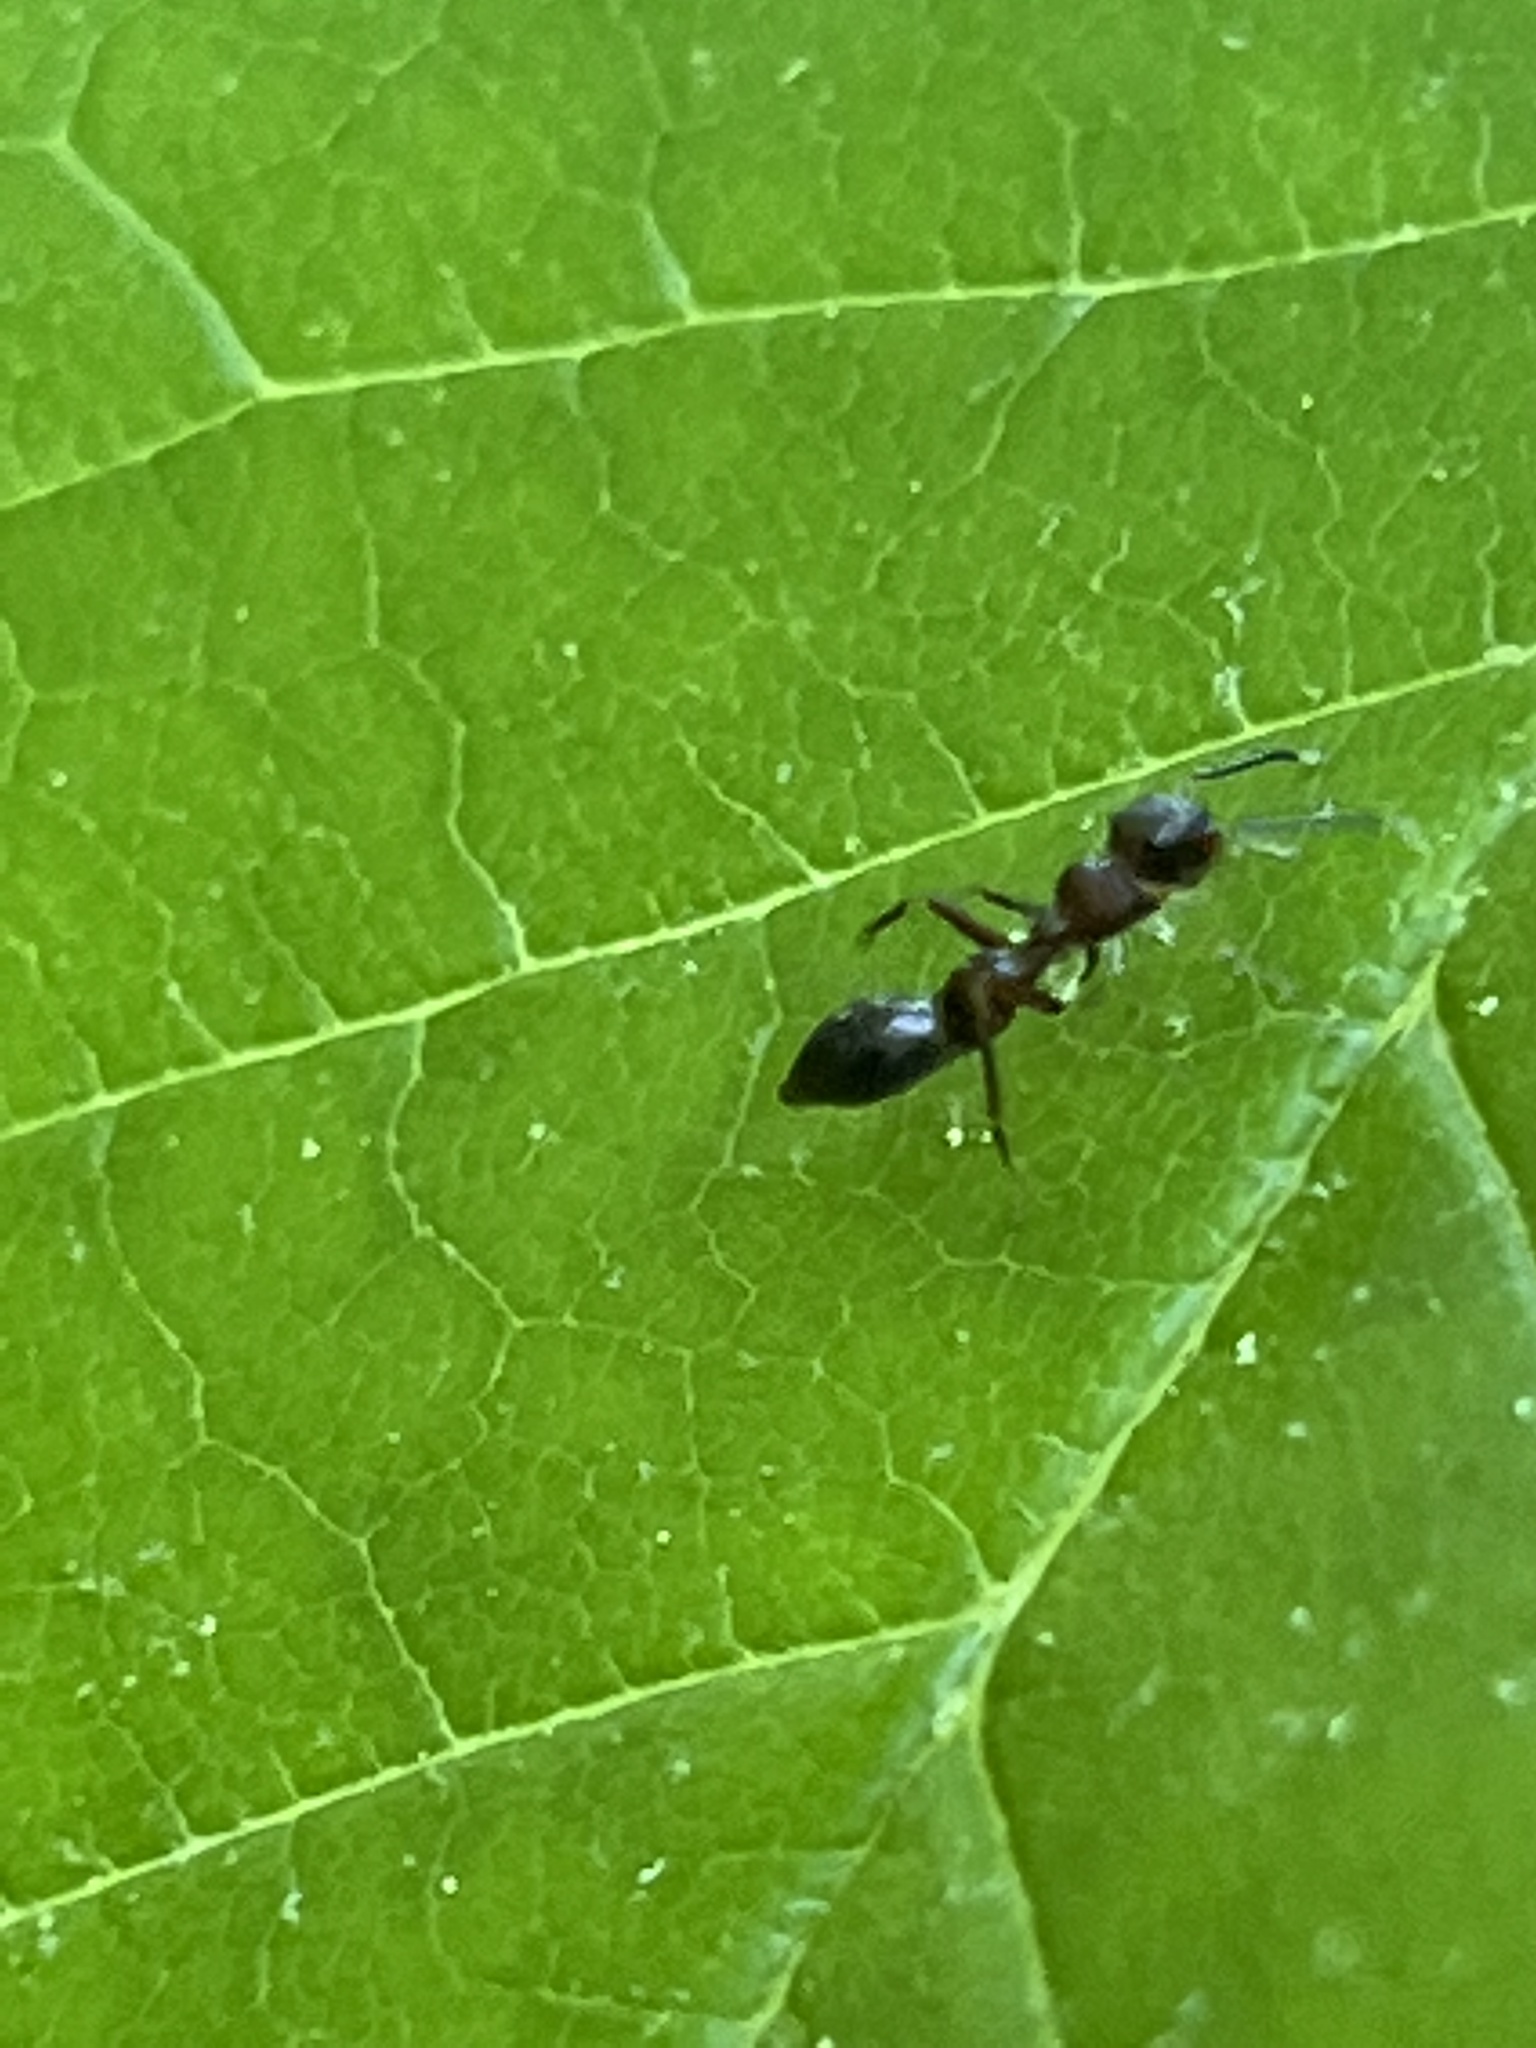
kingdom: Animalia
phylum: Arthropoda
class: Arachnida
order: Araneae
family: Salticidae
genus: Synemosyna
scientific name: Synemosyna formica
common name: Slender ant-mimic jumping spider
